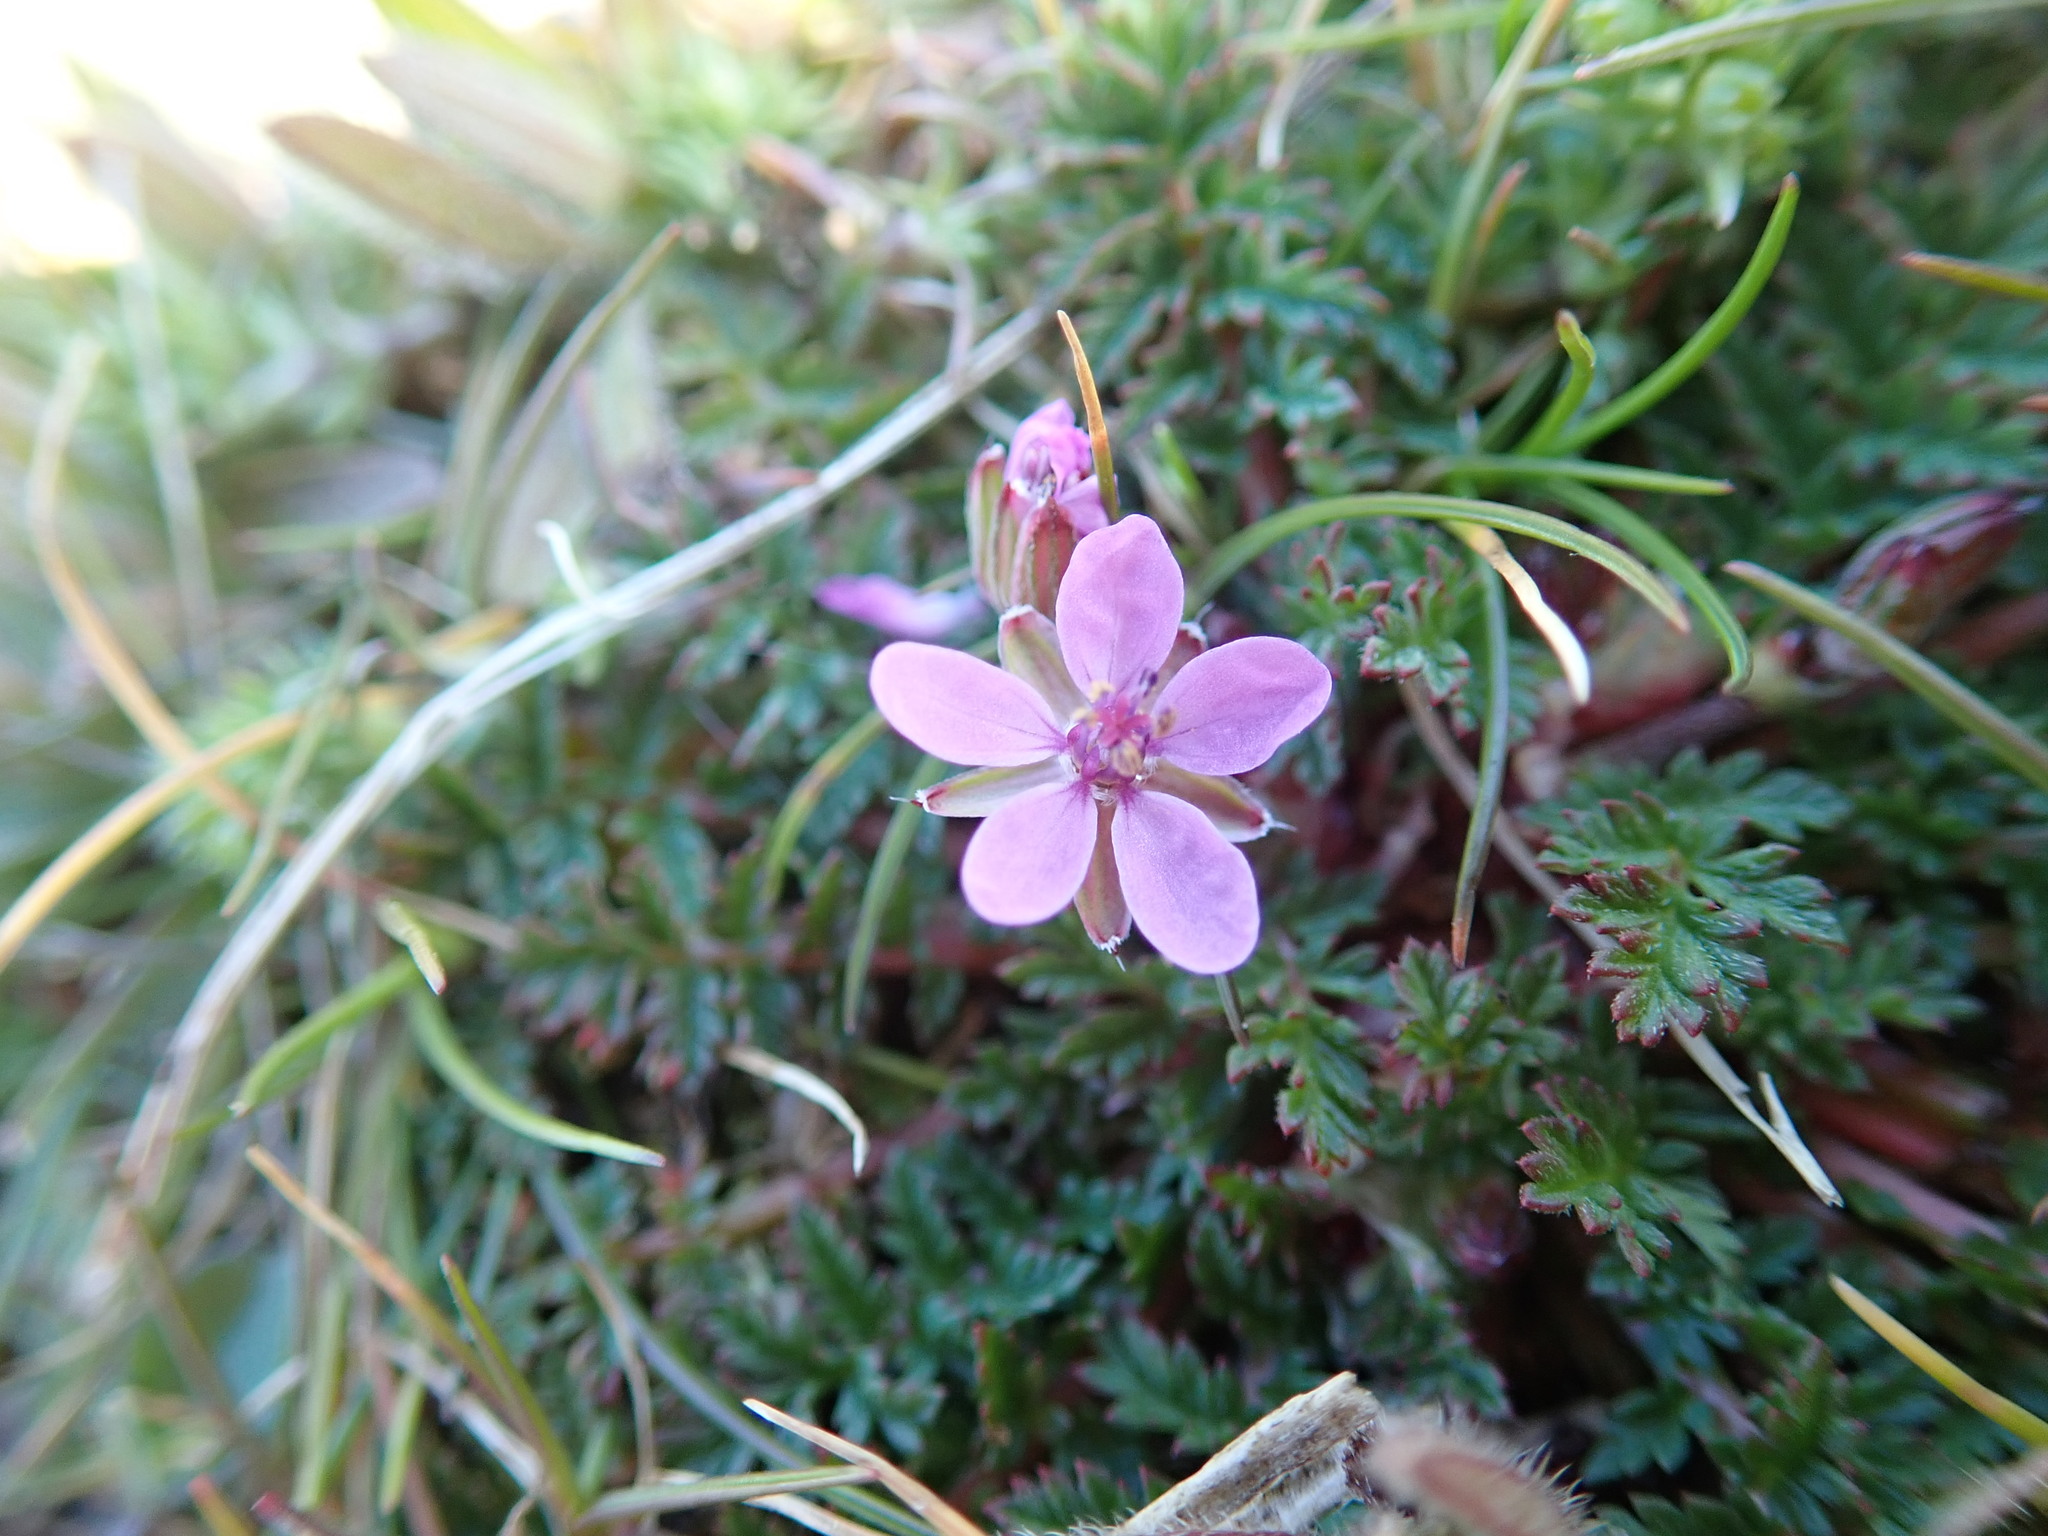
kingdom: Plantae
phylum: Tracheophyta
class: Magnoliopsida
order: Geraniales
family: Geraniaceae
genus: Erodium
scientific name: Erodium cicutarium
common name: Common stork's-bill
